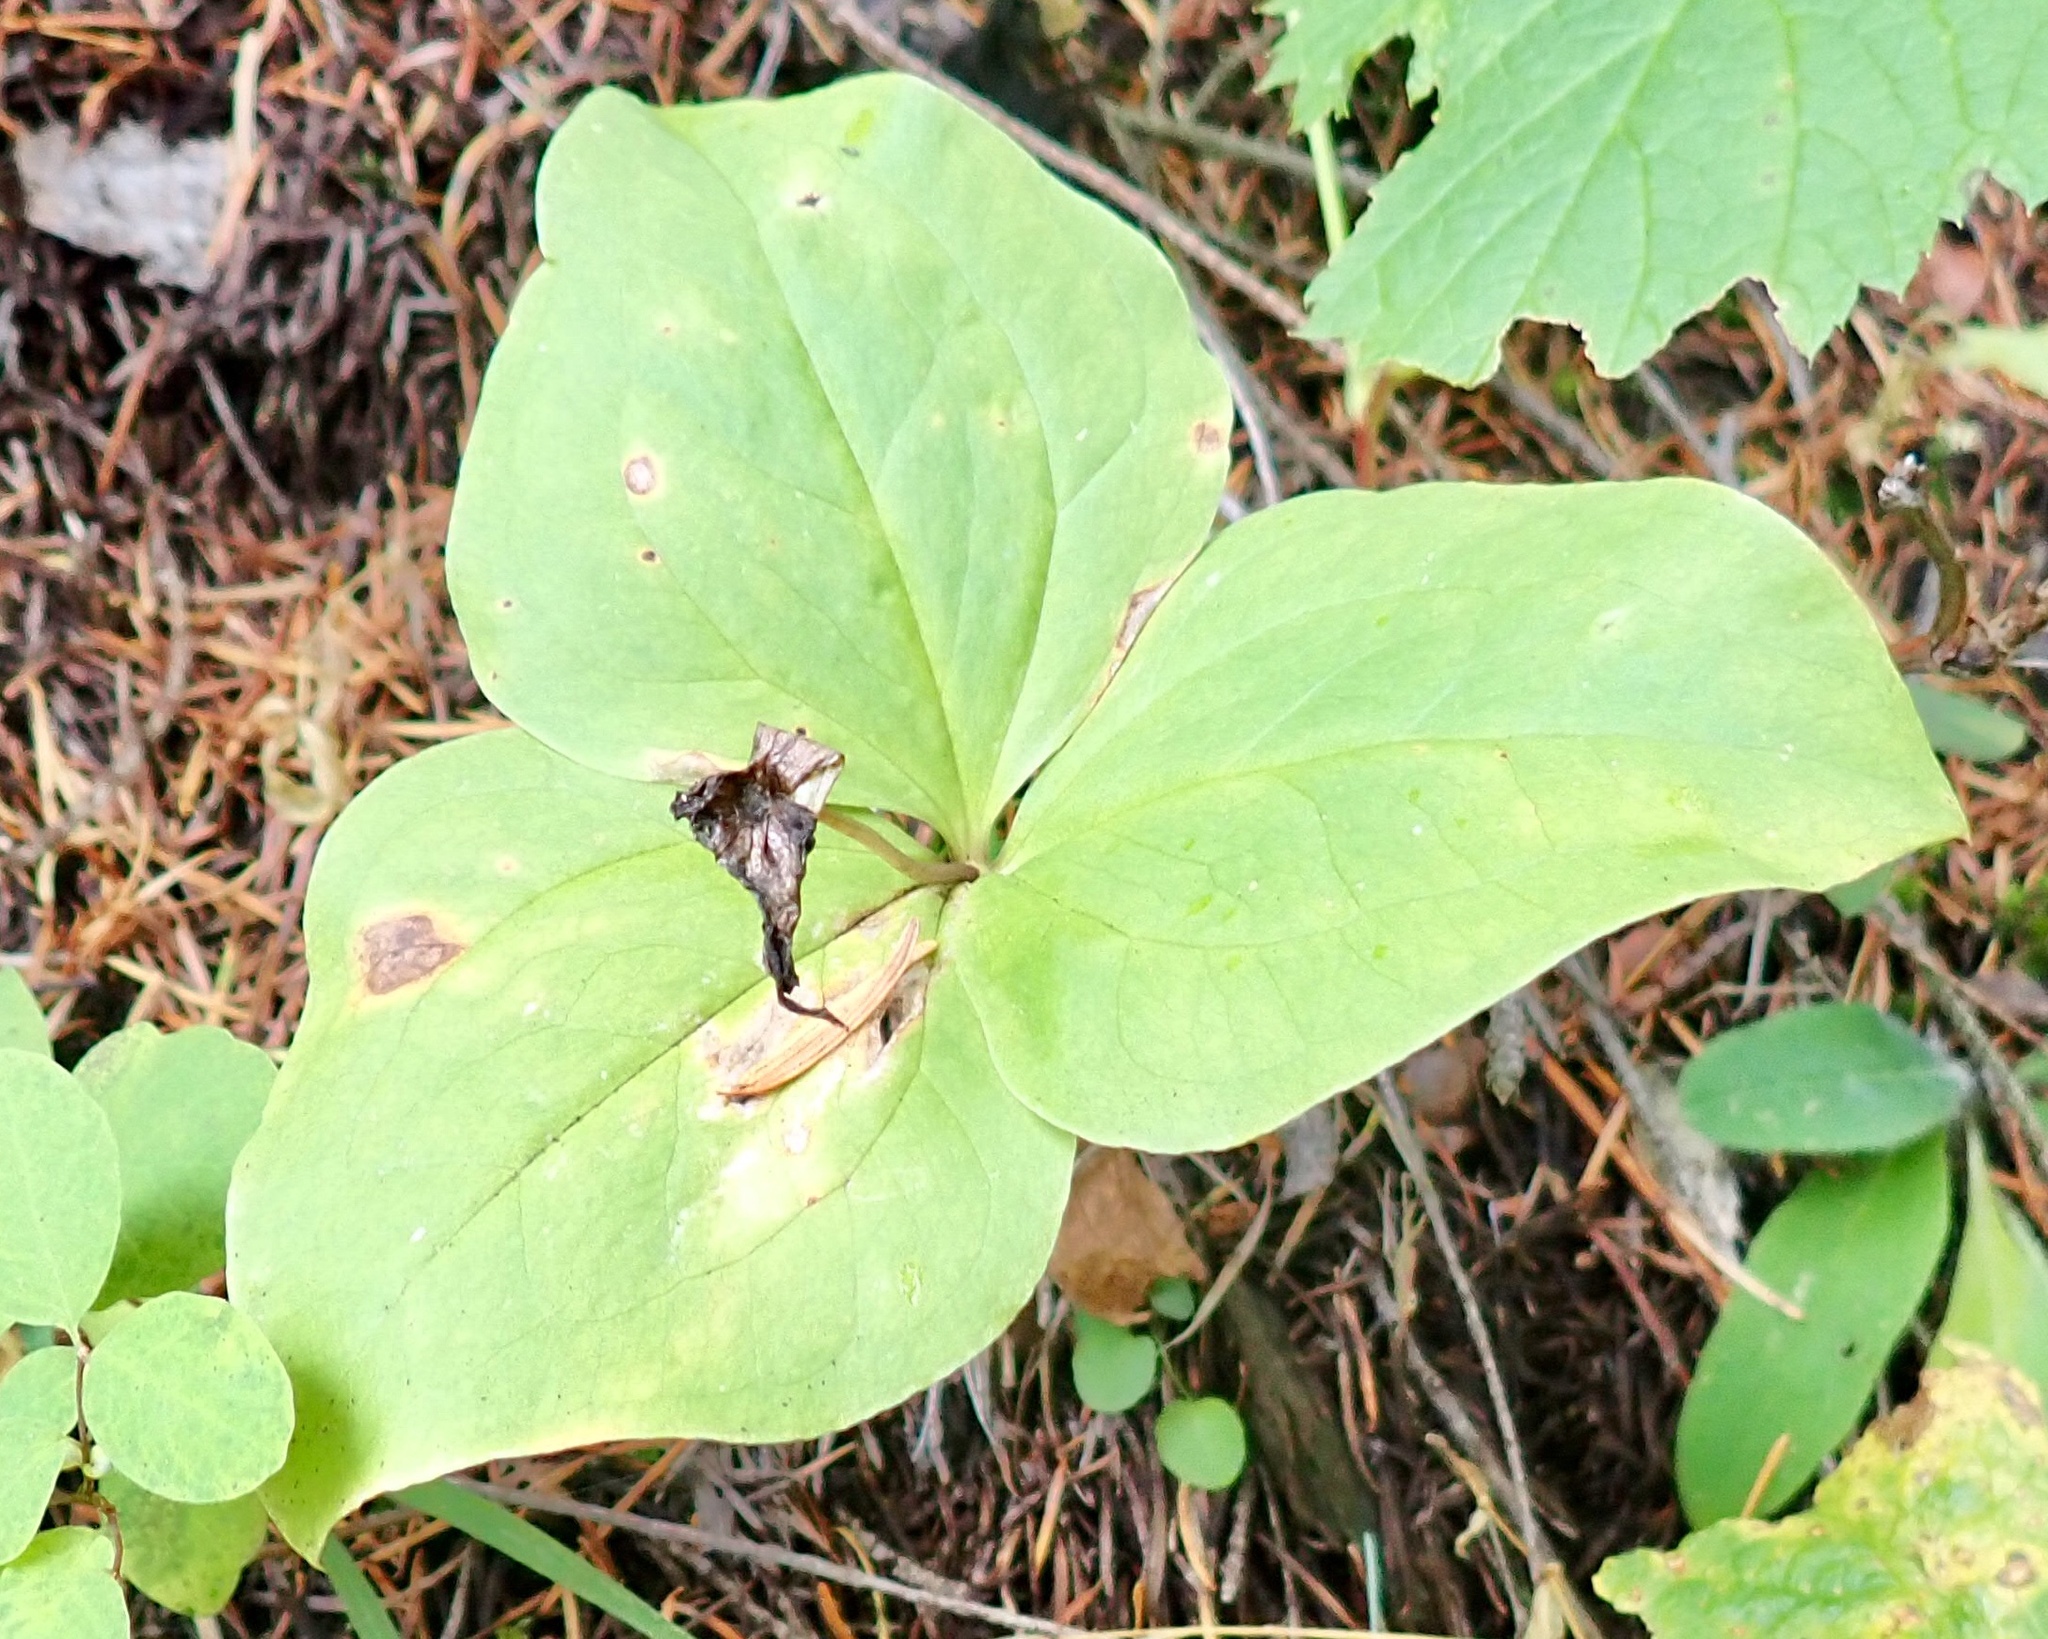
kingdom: Plantae
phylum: Tracheophyta
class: Liliopsida
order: Liliales
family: Melanthiaceae
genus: Trillium
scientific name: Trillium ovatum
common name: Pacific trillium
